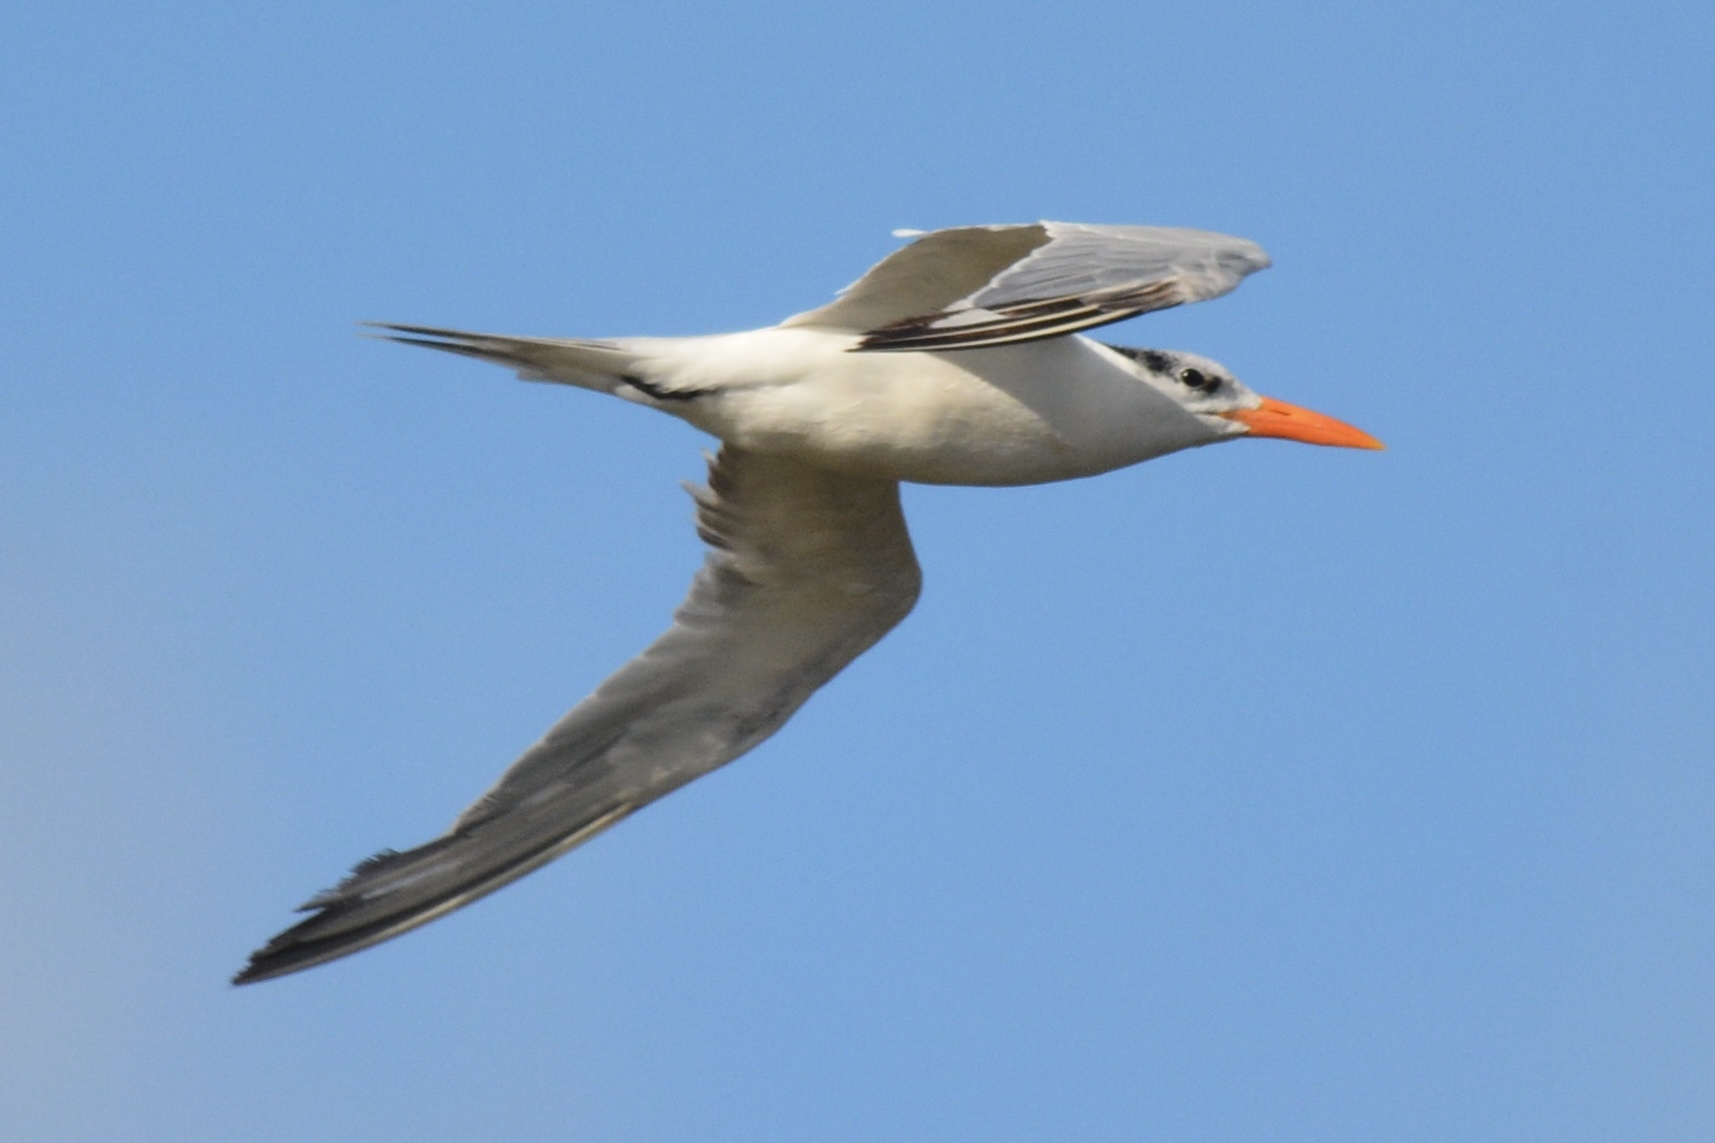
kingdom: Animalia
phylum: Chordata
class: Aves
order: Charadriiformes
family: Laridae
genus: Thalasseus
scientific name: Thalasseus maximus
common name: Royal tern
